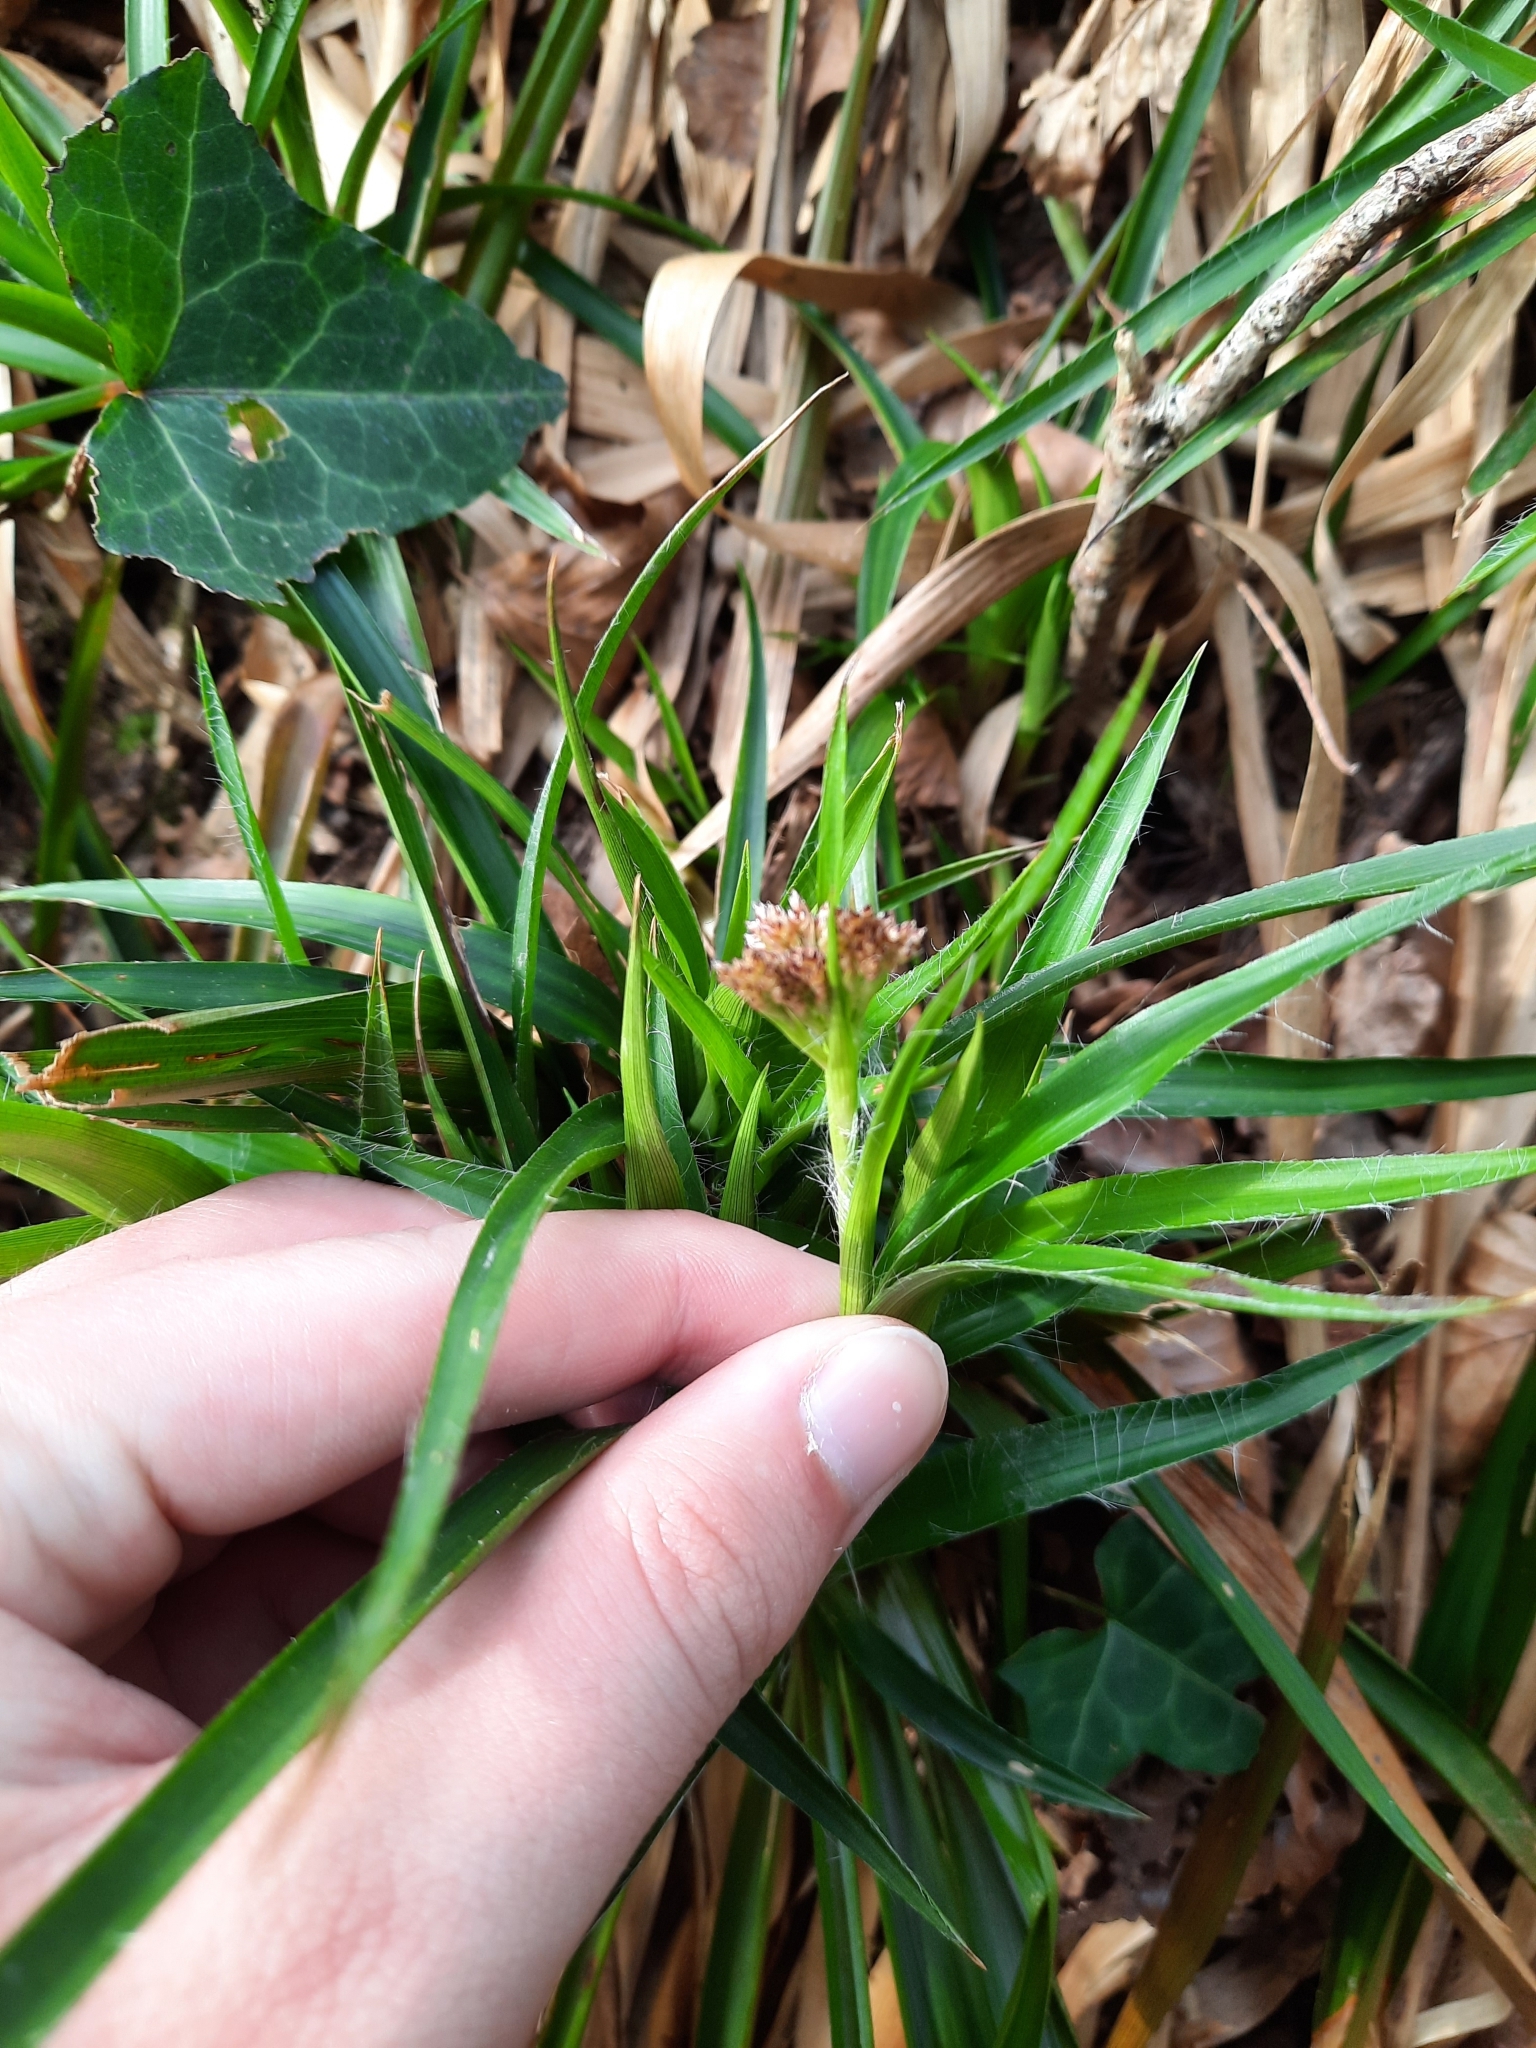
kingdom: Plantae
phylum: Tracheophyta
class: Liliopsida
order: Poales
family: Juncaceae
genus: Luzula
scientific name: Luzula sylvatica
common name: Great wood-rush
